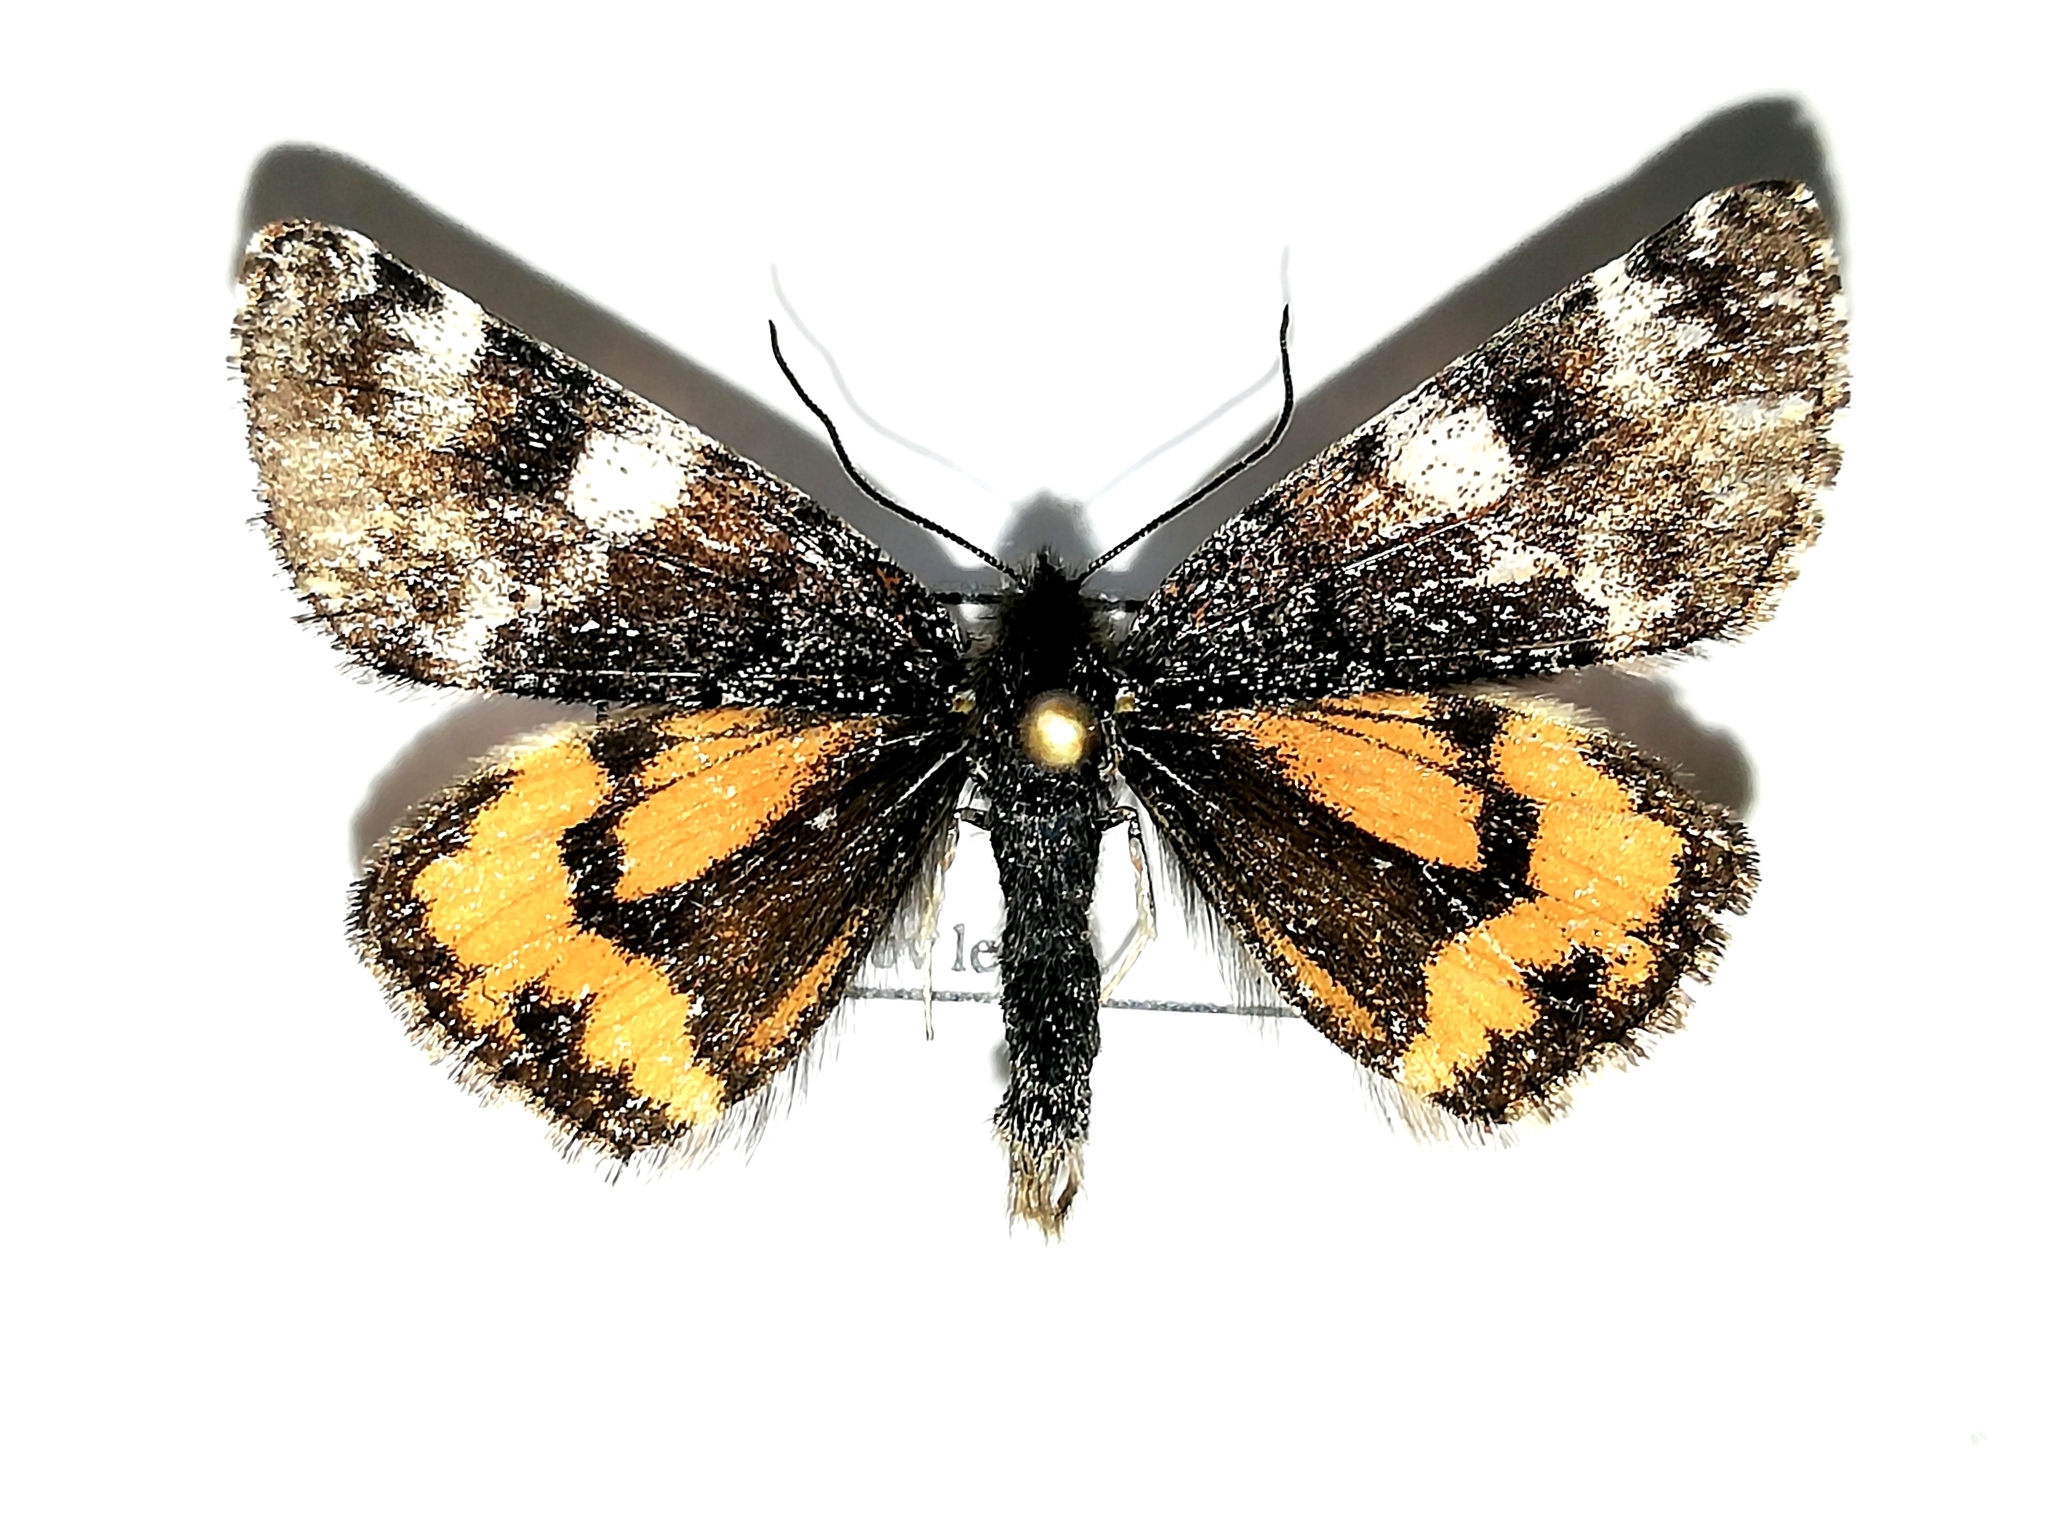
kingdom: Animalia
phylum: Arthropoda
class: Insecta
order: Lepidoptera
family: Geometridae
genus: Archiearis
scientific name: Archiearis parthenias
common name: Orange underwing
